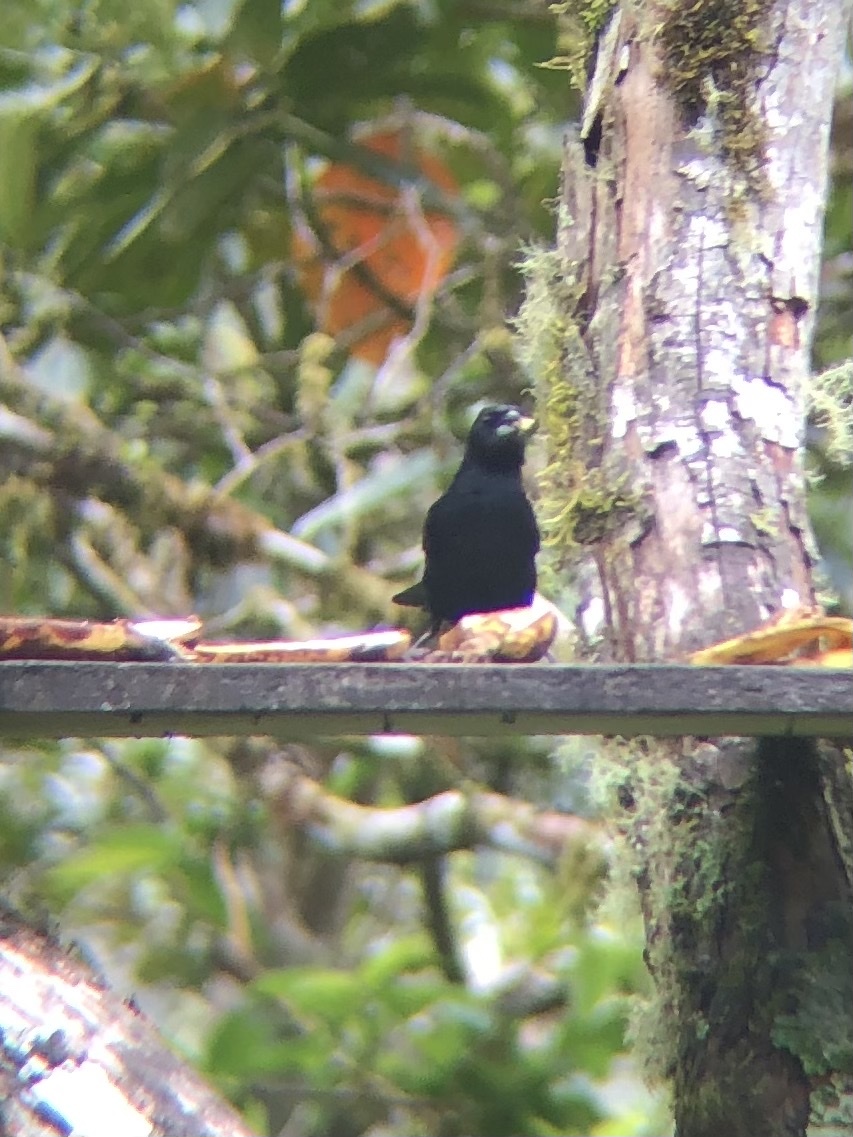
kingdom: Animalia
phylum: Chordata
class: Aves
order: Passeriformes
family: Thraupidae
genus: Tachyphonus
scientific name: Tachyphonus rufus
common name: White-lined tanager
